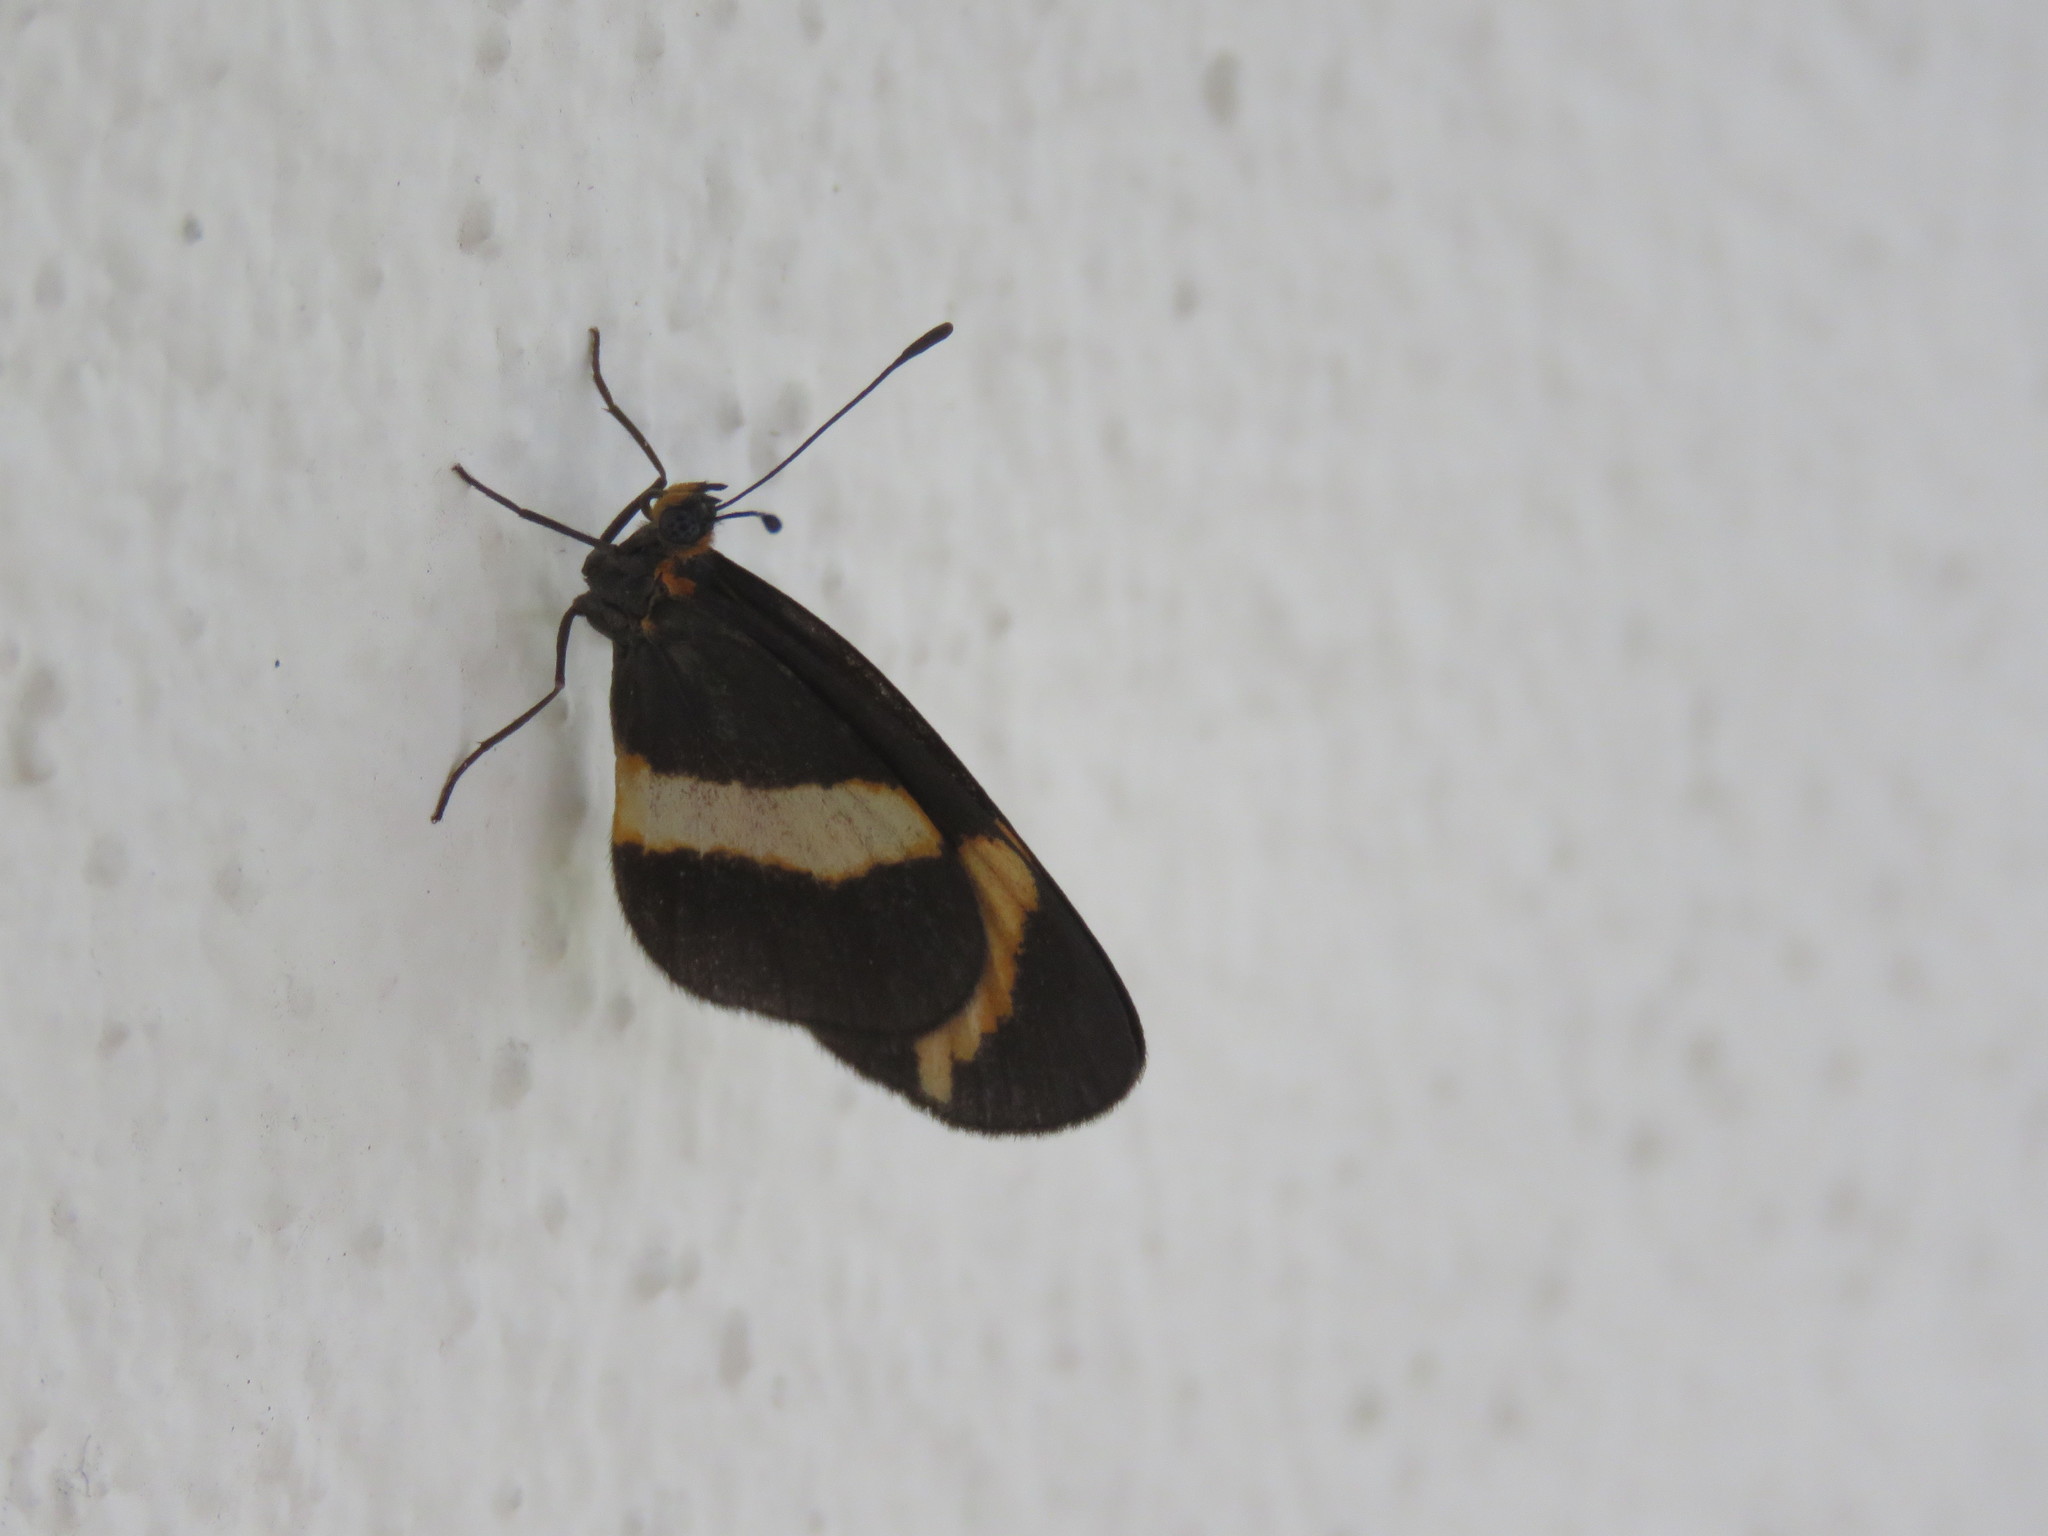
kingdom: Animalia
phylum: Arthropoda
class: Insecta
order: Lepidoptera
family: Nymphalidae
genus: Microtia
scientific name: Microtia elva
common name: Elf
